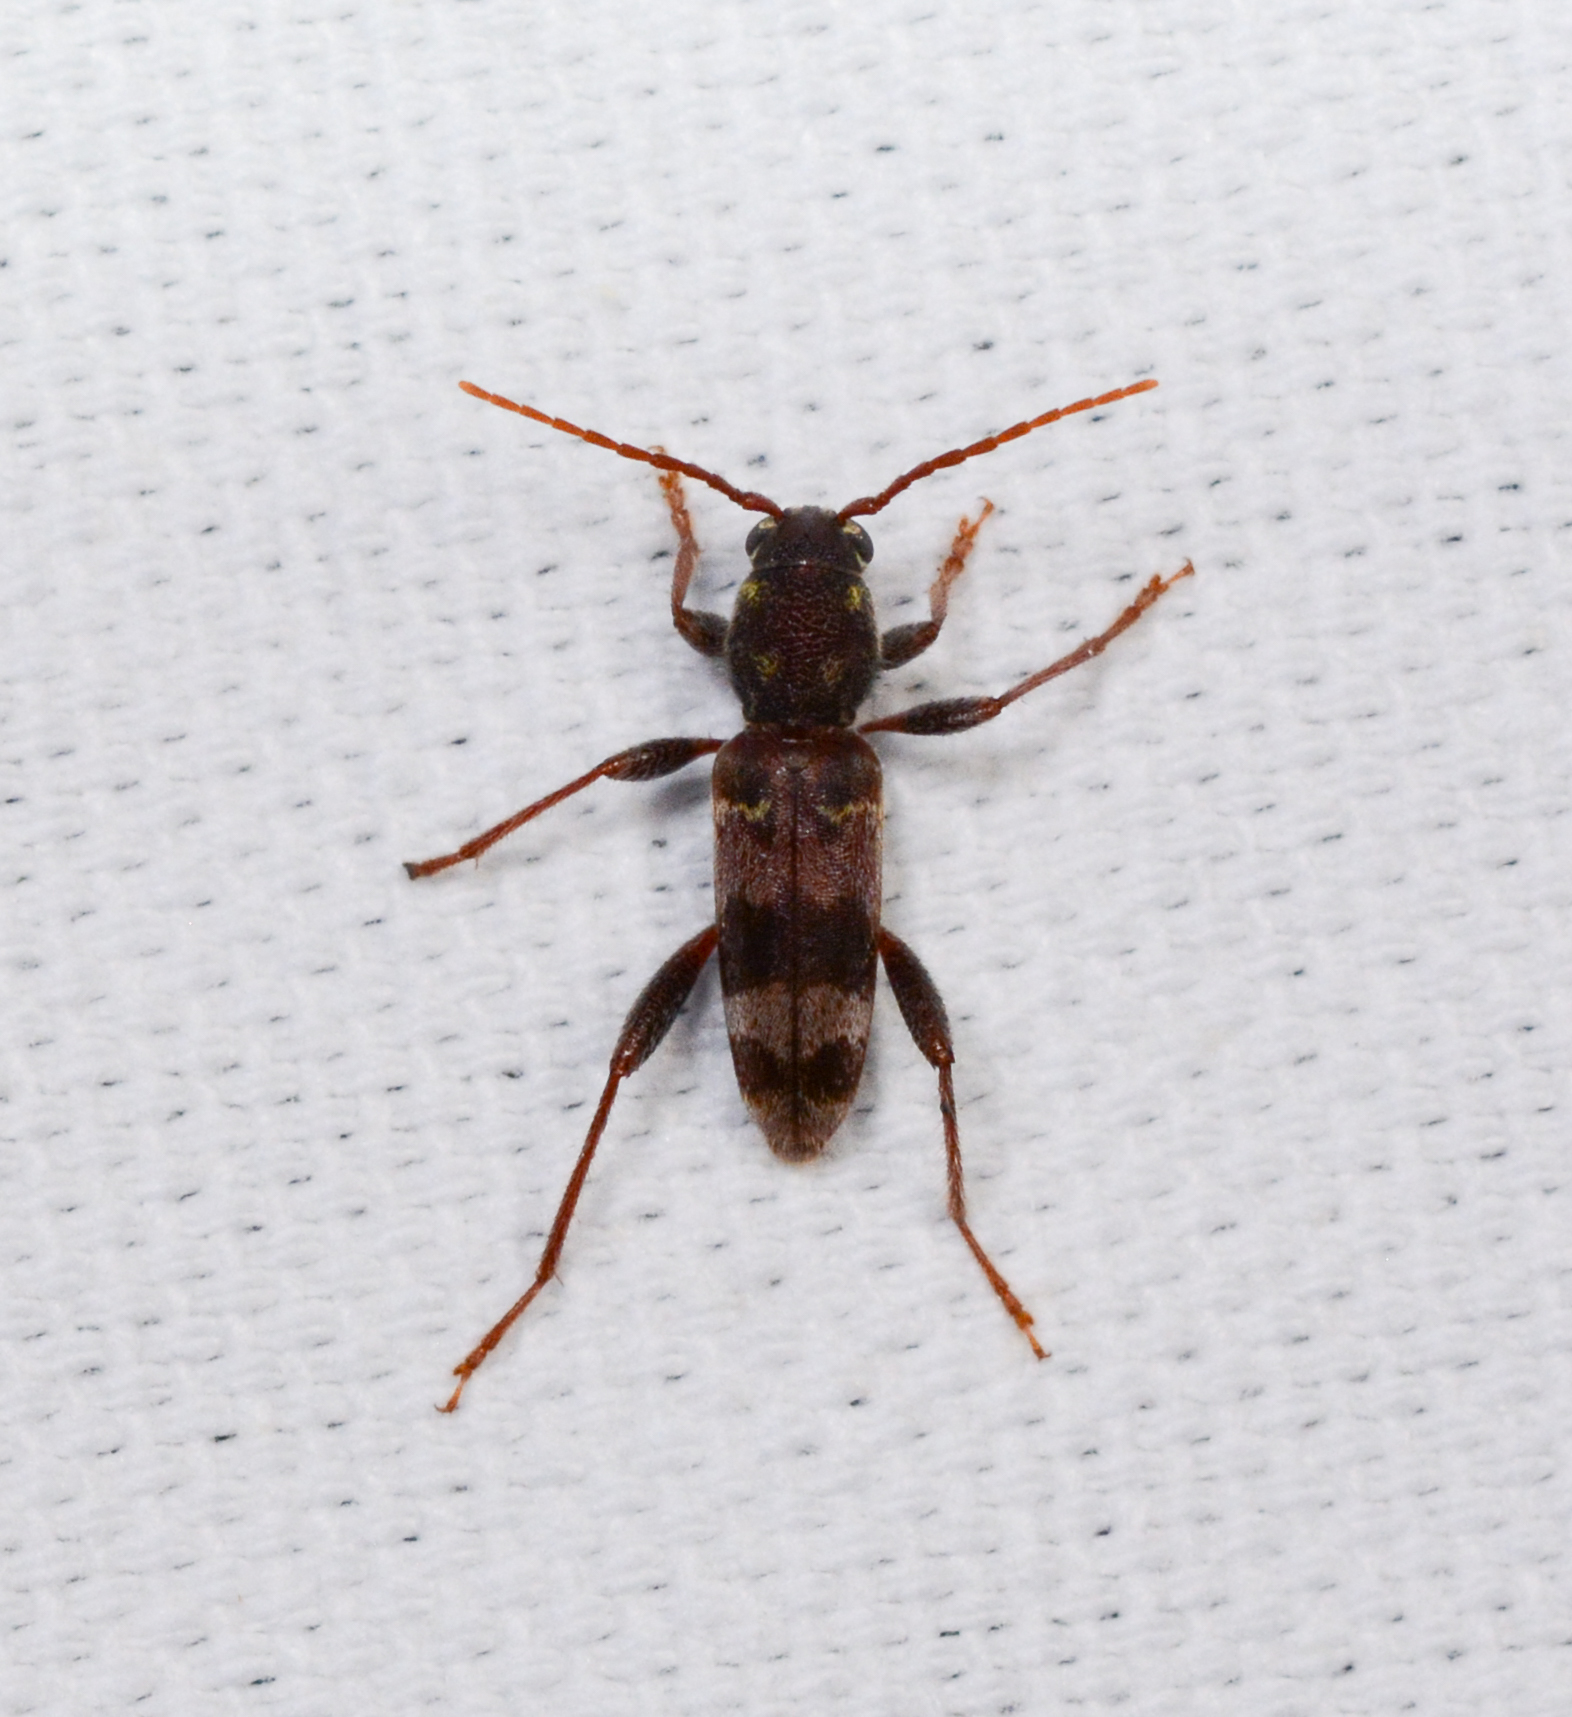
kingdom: Animalia
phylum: Arthropoda
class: Insecta
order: Coleoptera
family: Cerambycidae
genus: Xylotrechus
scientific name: Xylotrechus colonus
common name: Long-horned beetle
